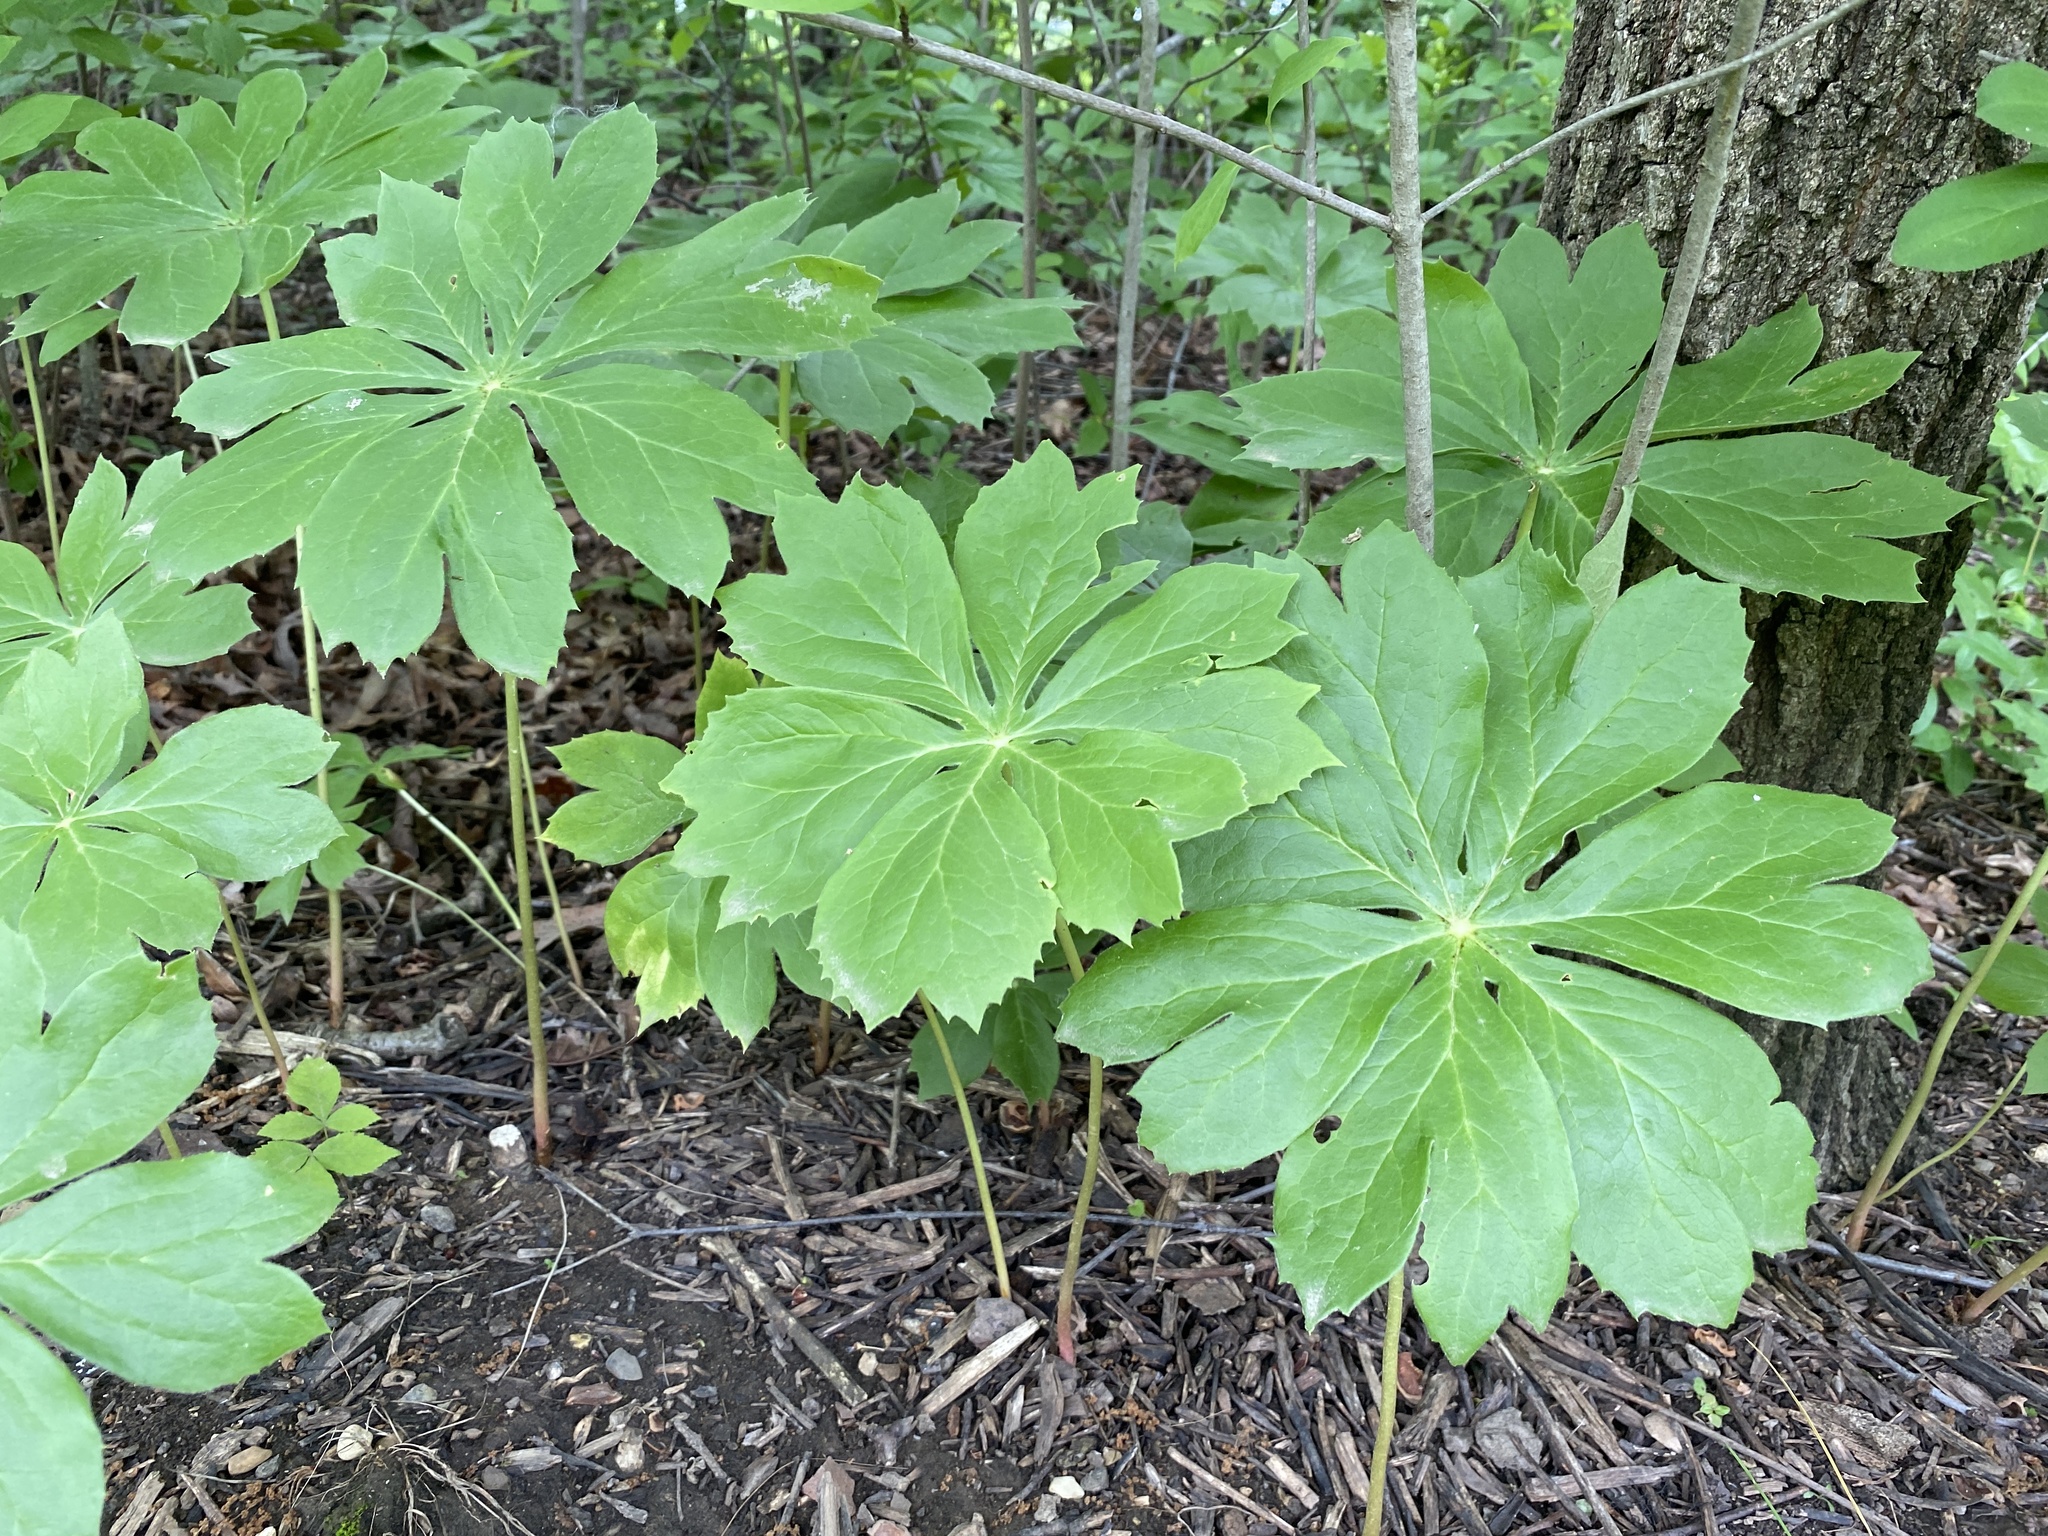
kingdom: Plantae
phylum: Tracheophyta
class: Magnoliopsida
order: Ranunculales
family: Berberidaceae
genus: Podophyllum
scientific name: Podophyllum peltatum
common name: Wild mandrake
